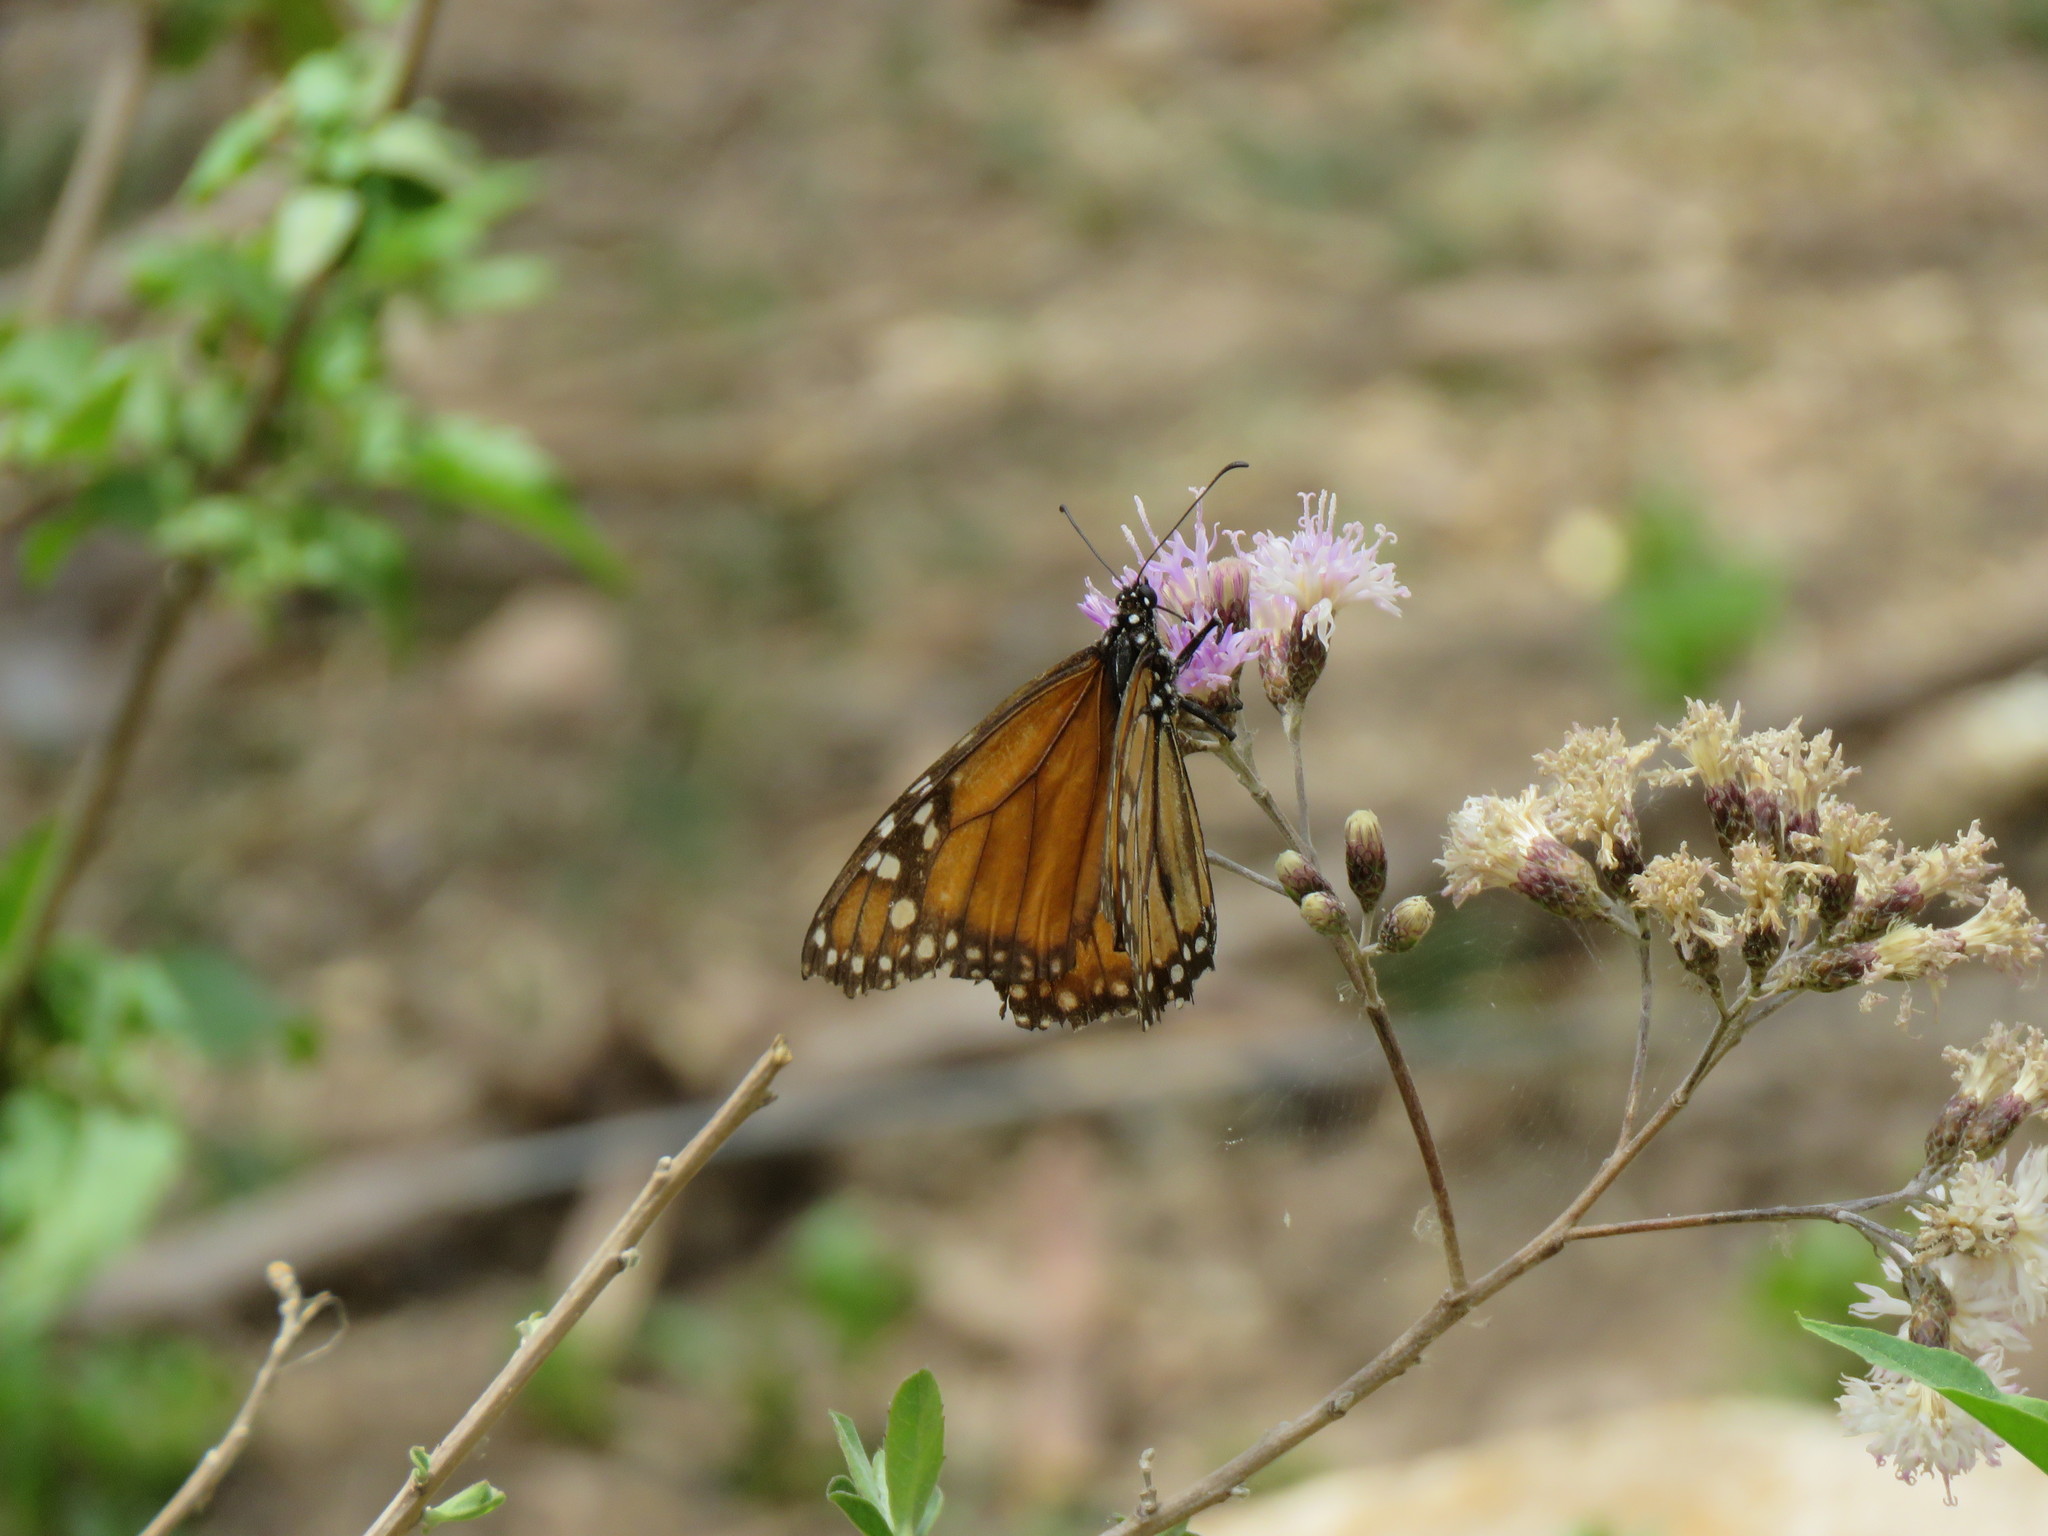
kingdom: Animalia
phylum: Arthropoda
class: Insecta
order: Lepidoptera
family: Nymphalidae
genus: Danaus
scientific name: Danaus erippus
